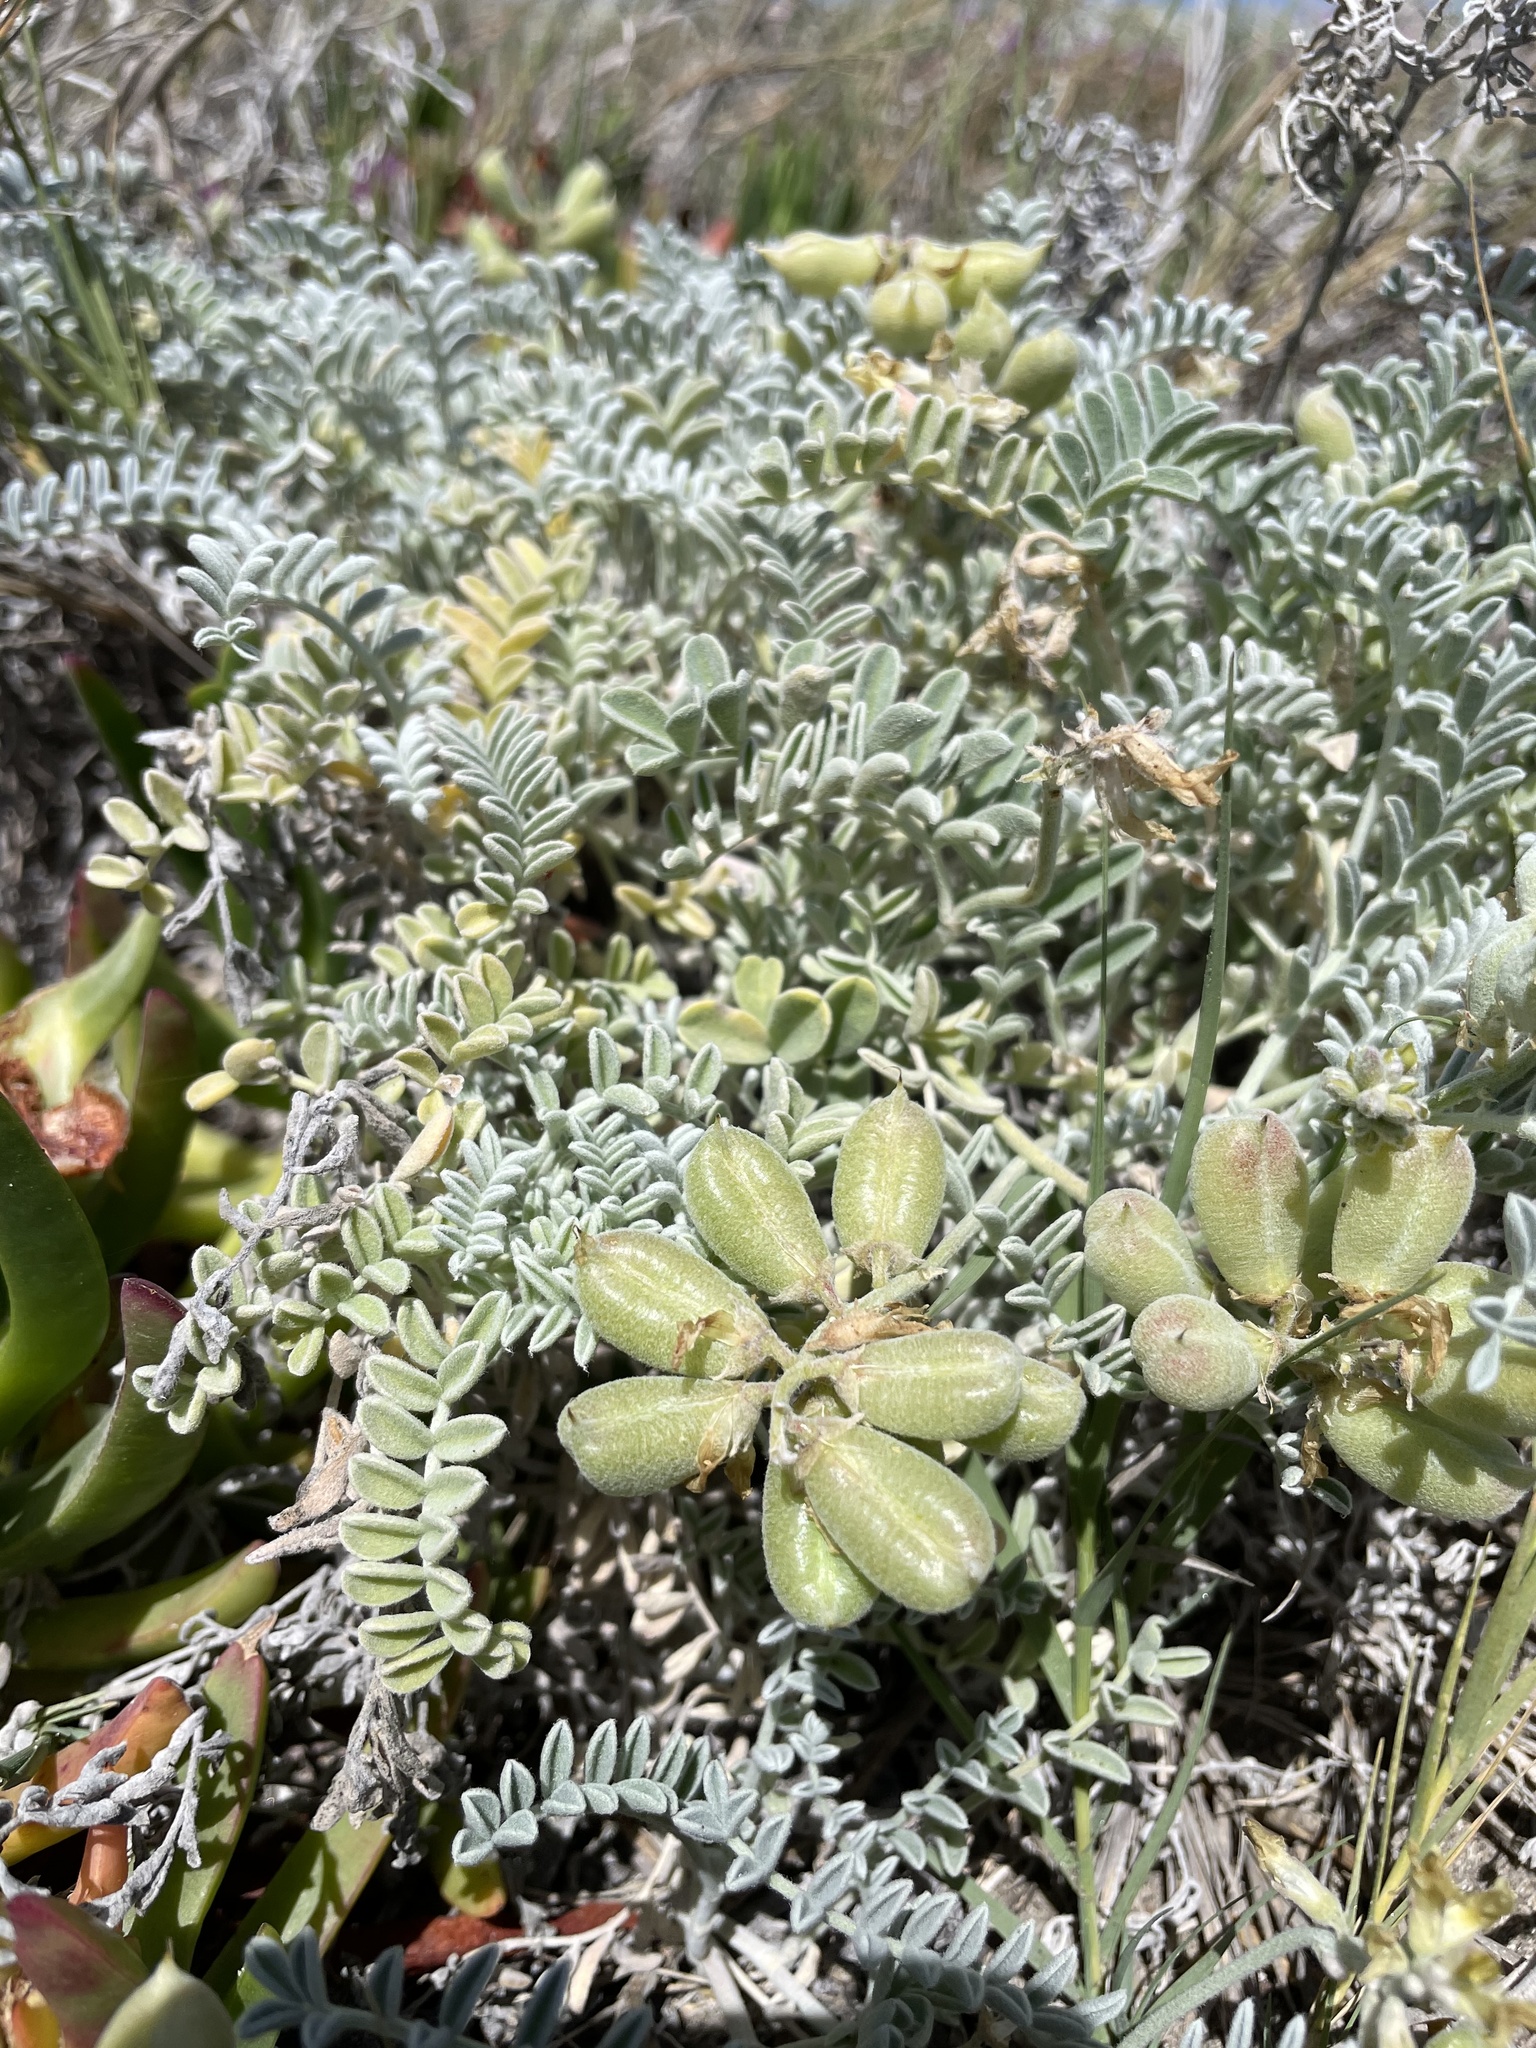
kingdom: Plantae
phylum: Tracheophyta
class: Magnoliopsida
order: Fabales
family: Fabaceae
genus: Astragalus
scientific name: Astragalus miguelensis
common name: San miguel milk-vetch
